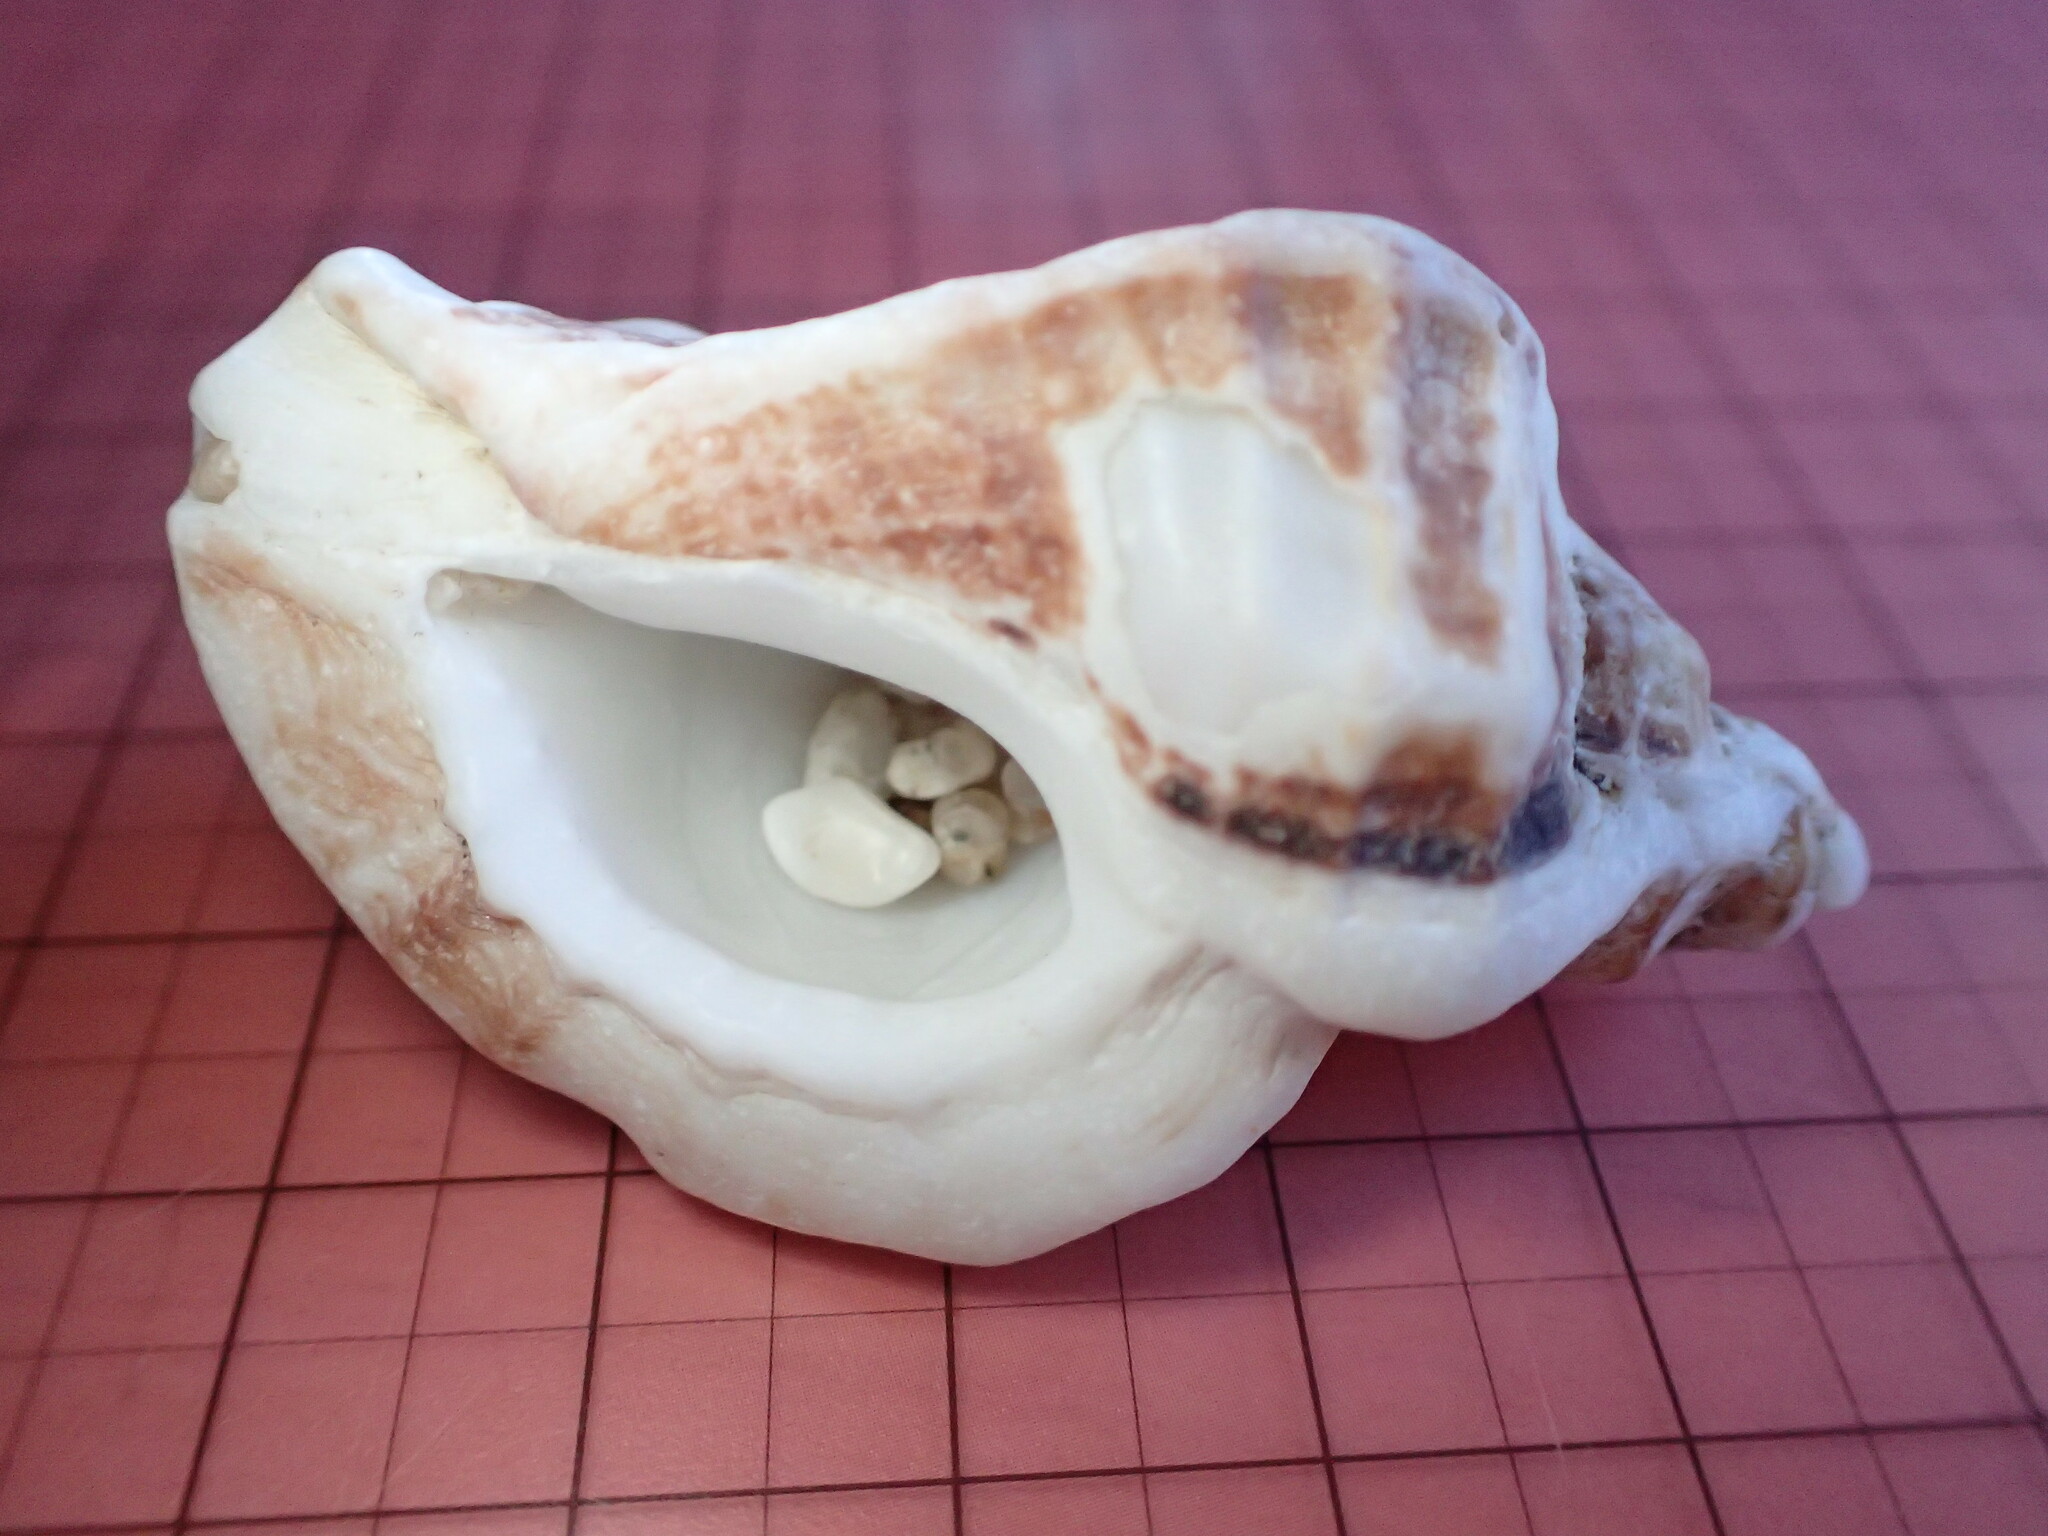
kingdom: Animalia
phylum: Mollusca
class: Gastropoda
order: Neogastropoda
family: Muricidae
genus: Ceratostoma
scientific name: Ceratostoma foliatum
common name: Foliate thorn purpura
